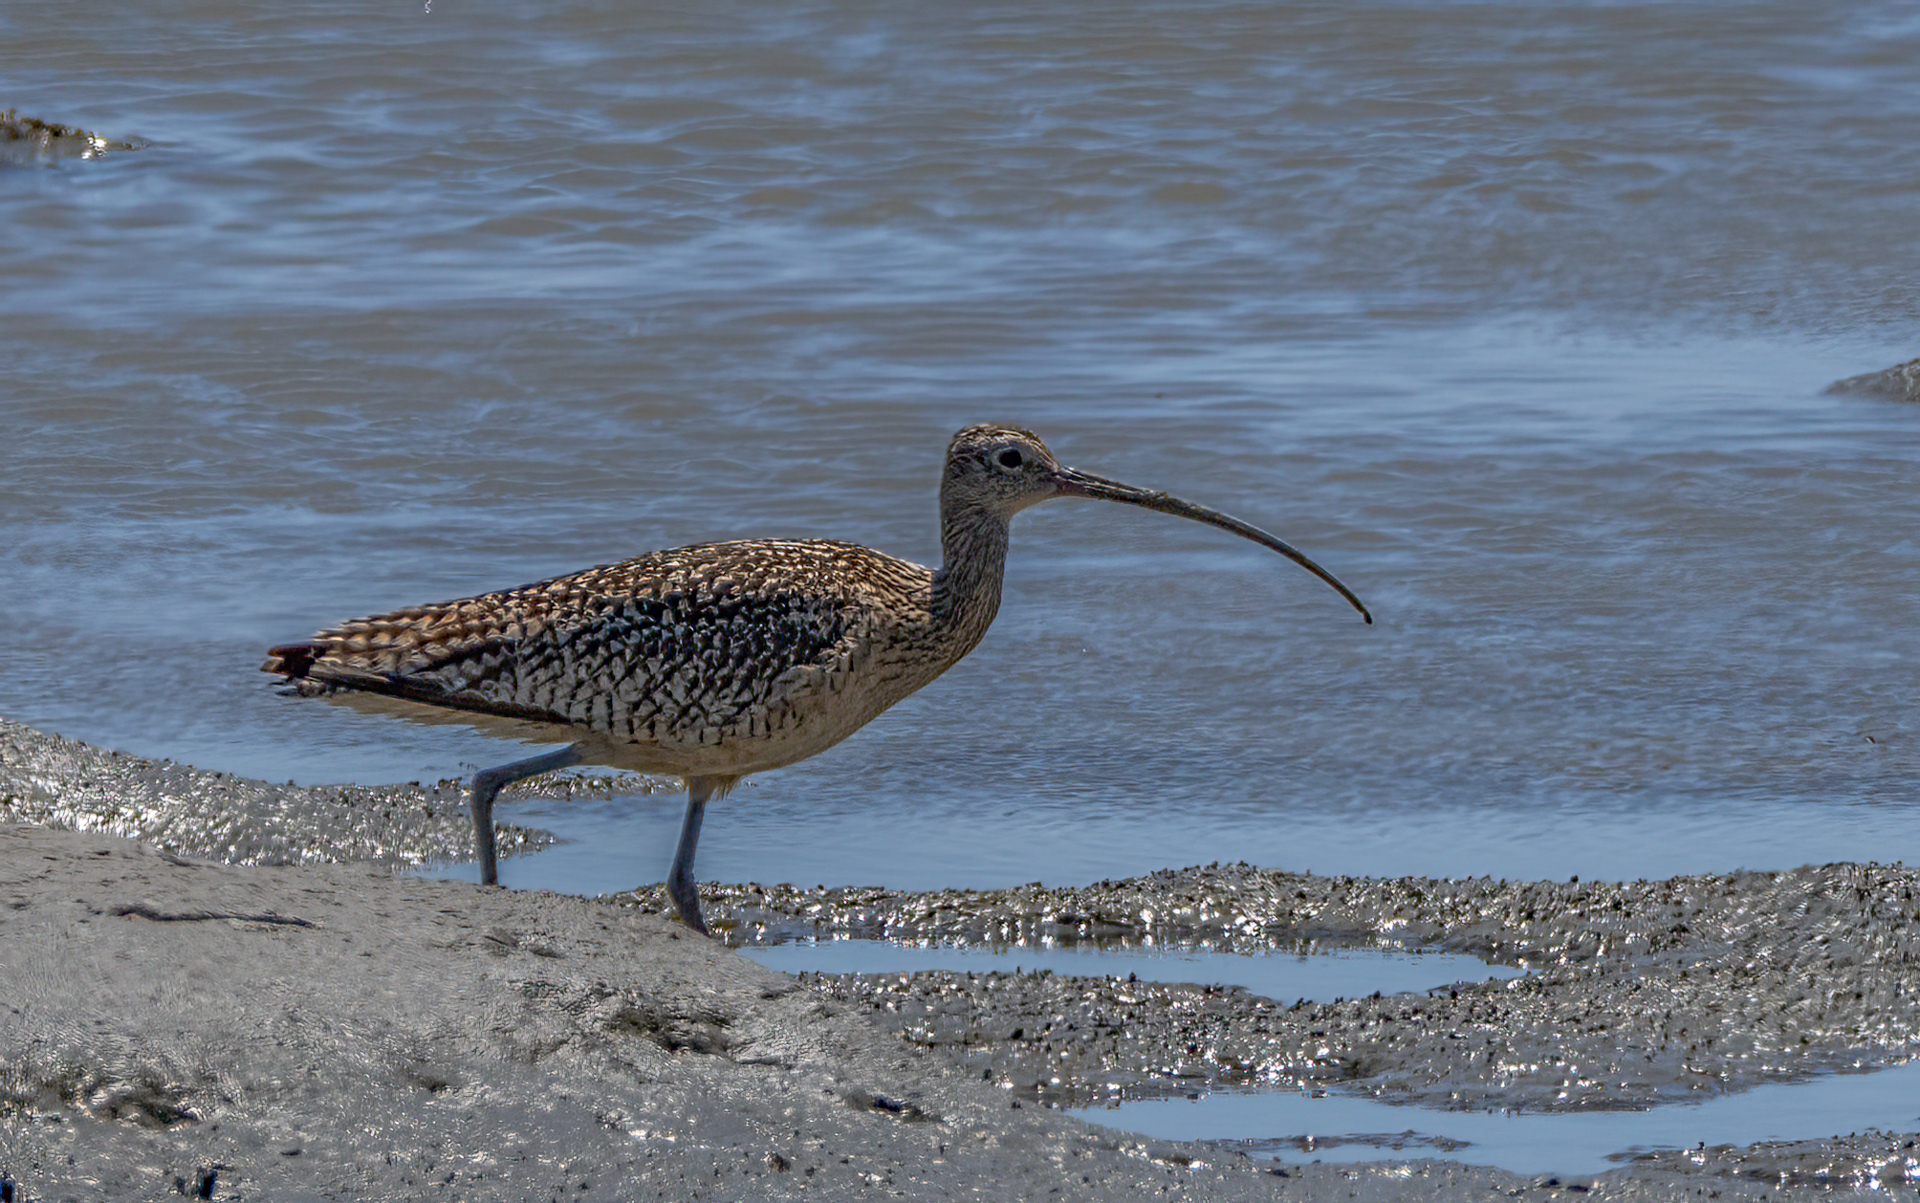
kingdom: Animalia
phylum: Chordata
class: Aves
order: Charadriiformes
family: Scolopacidae
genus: Numenius
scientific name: Numenius americanus
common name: Long-billed curlew
